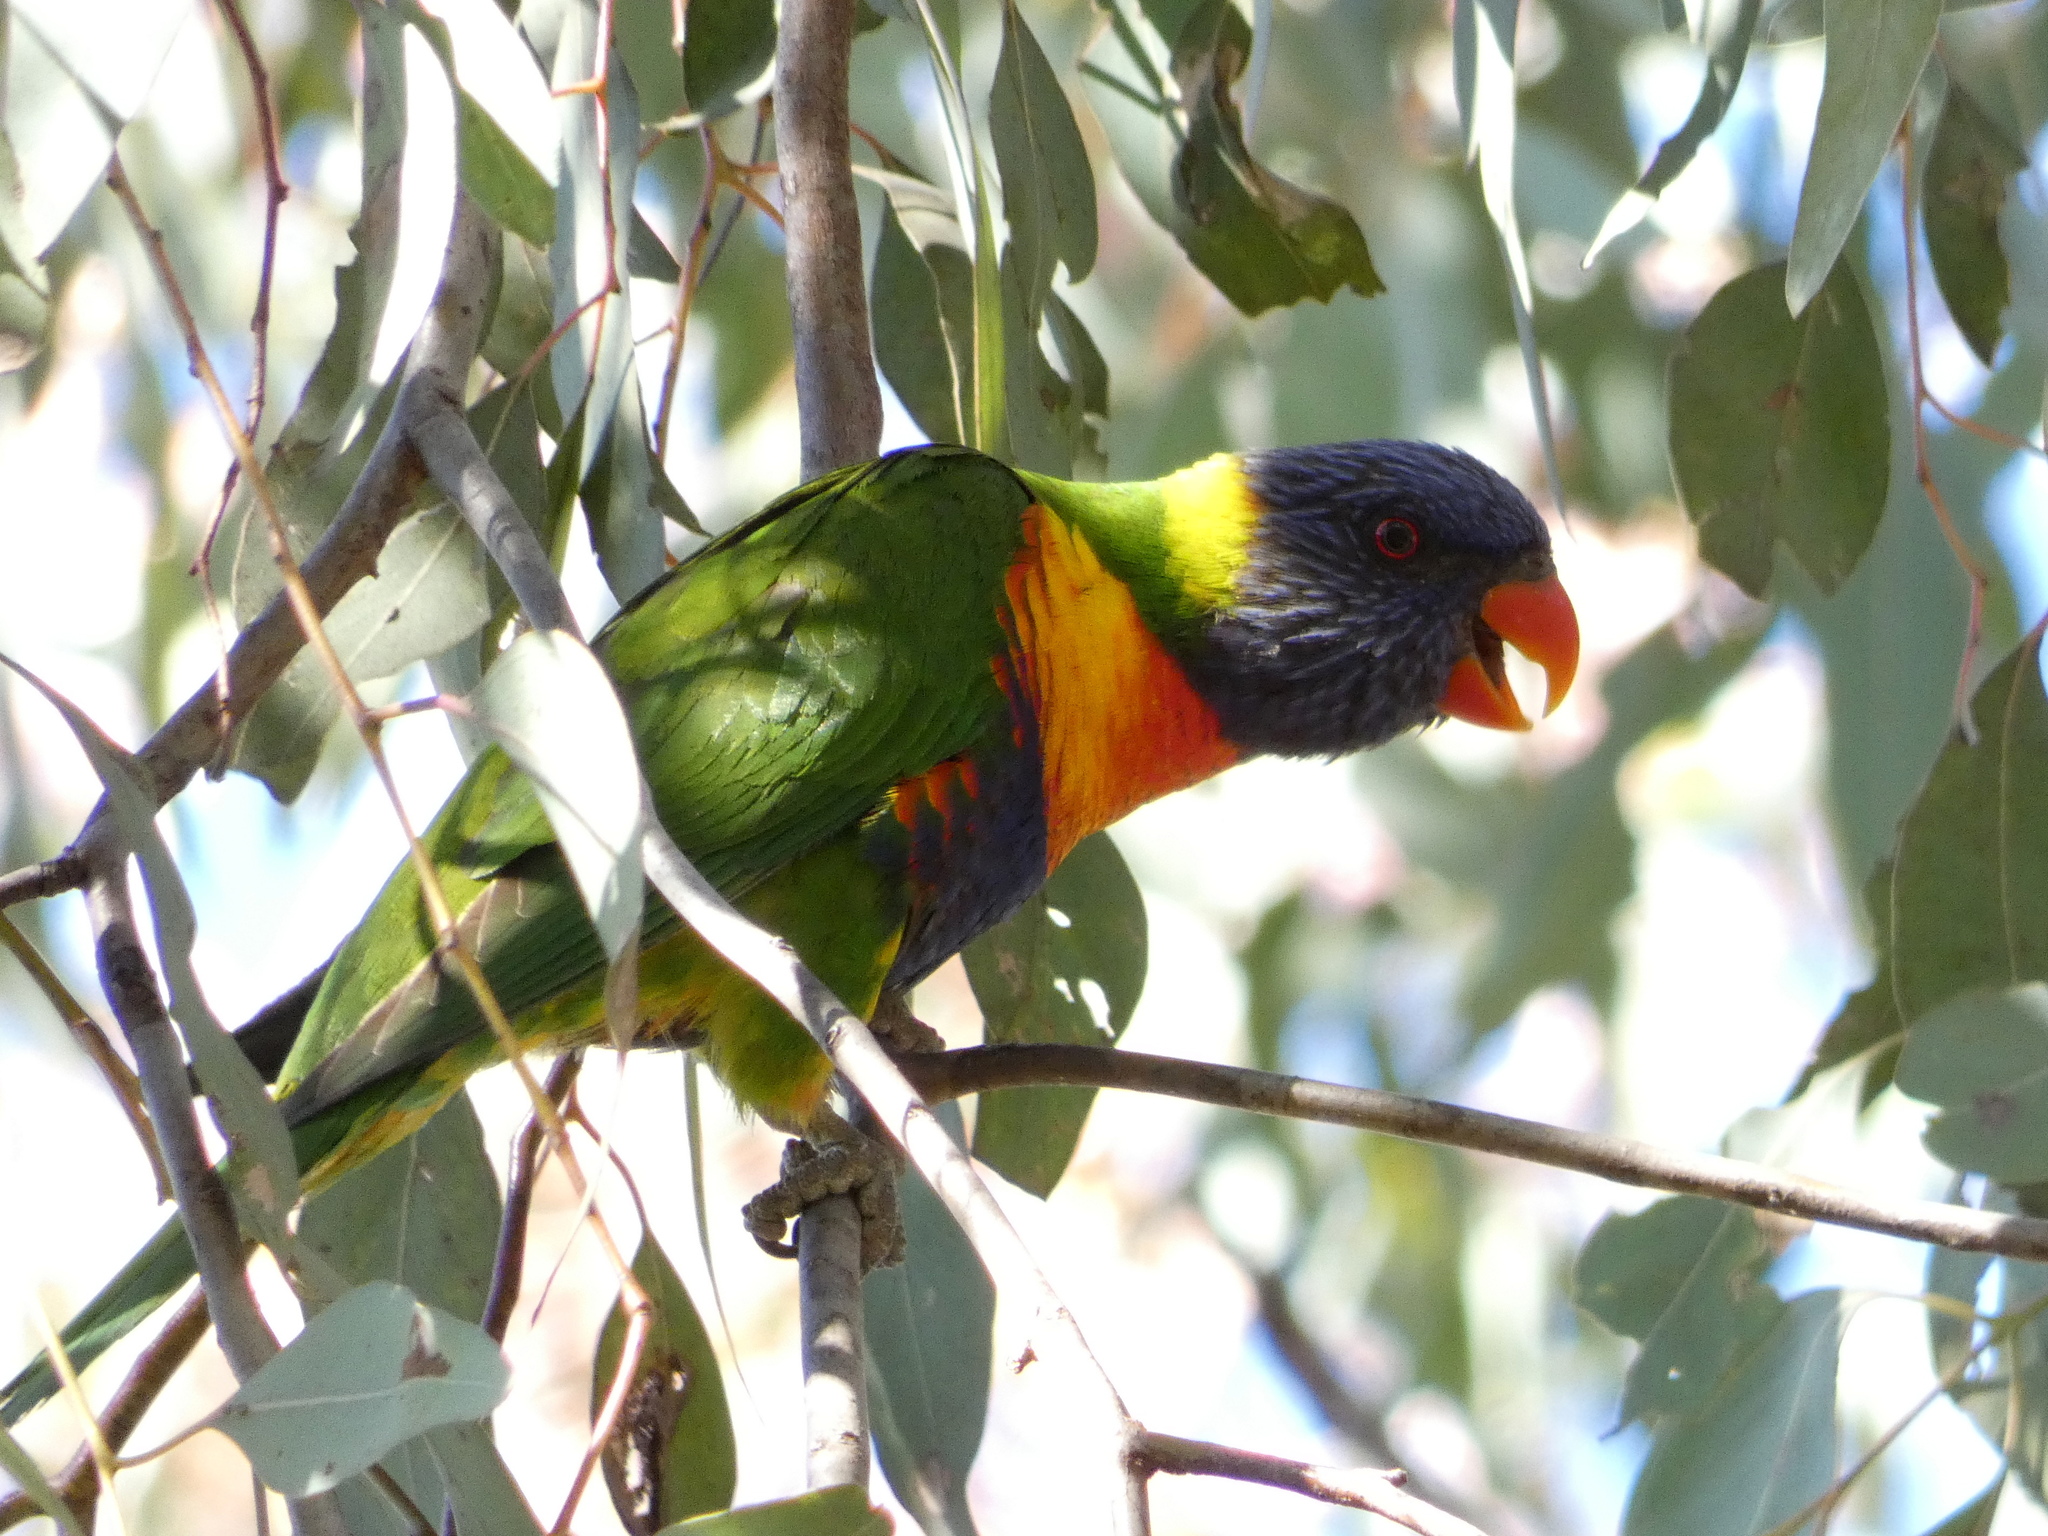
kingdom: Animalia
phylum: Chordata
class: Aves
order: Psittaciformes
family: Psittacidae
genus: Trichoglossus
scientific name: Trichoglossus haematodus
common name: Coconut lorikeet
